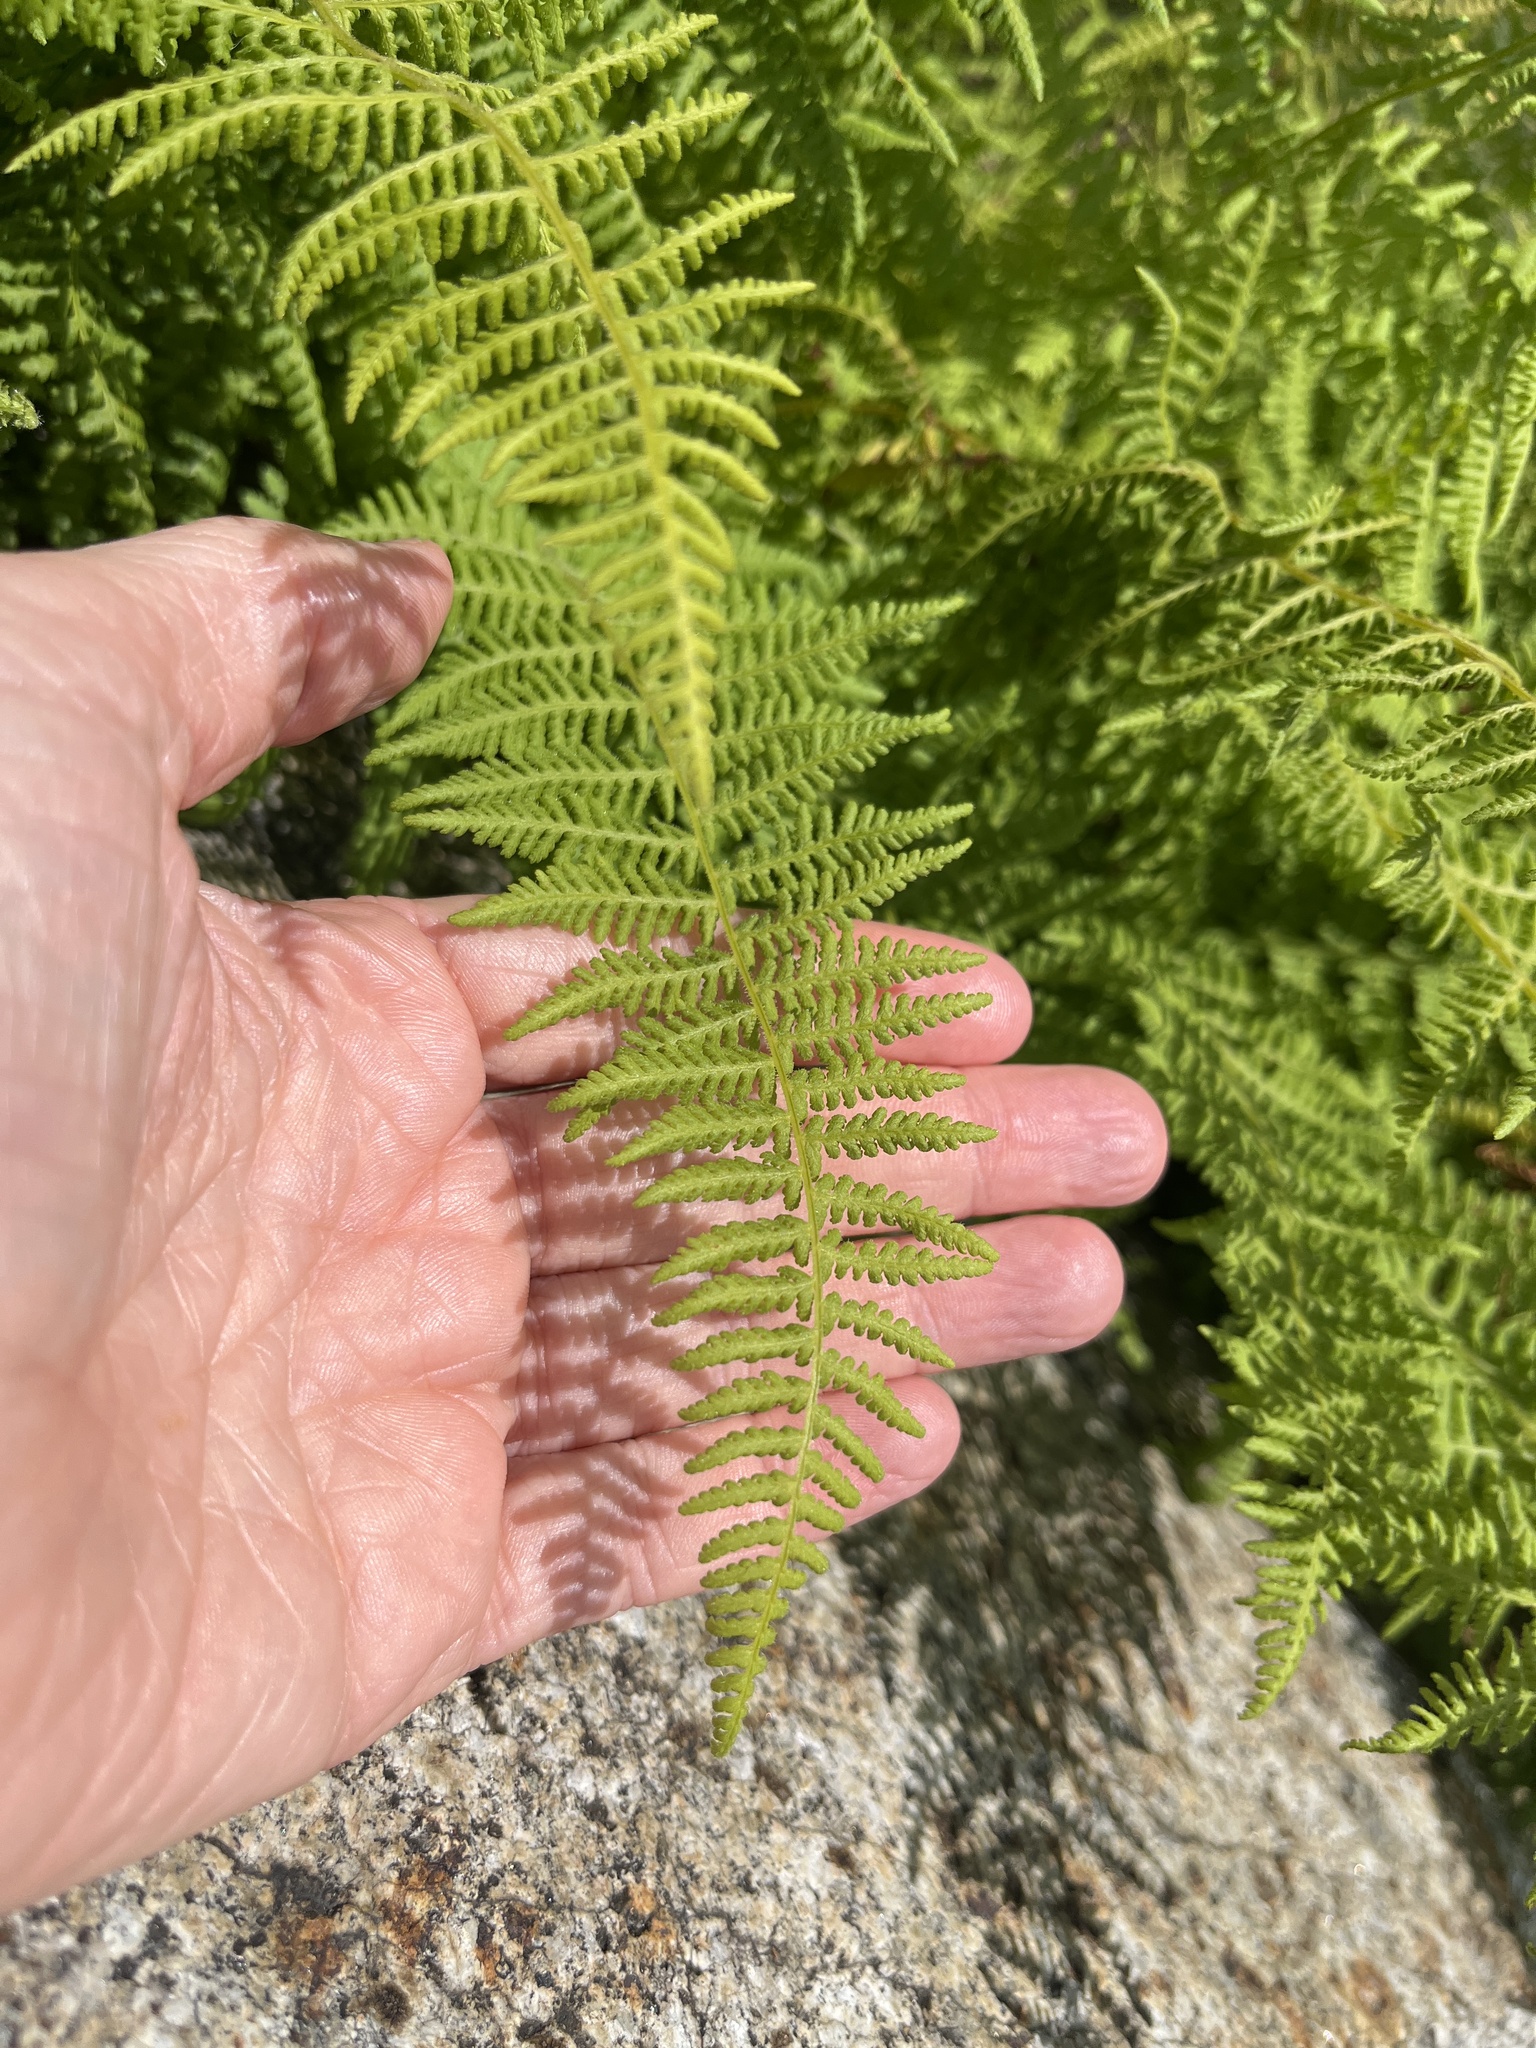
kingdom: Plantae
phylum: Tracheophyta
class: Polypodiopsida
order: Polypodiales
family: Dennstaedtiaceae
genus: Sitobolium
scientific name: Sitobolium punctilobum
